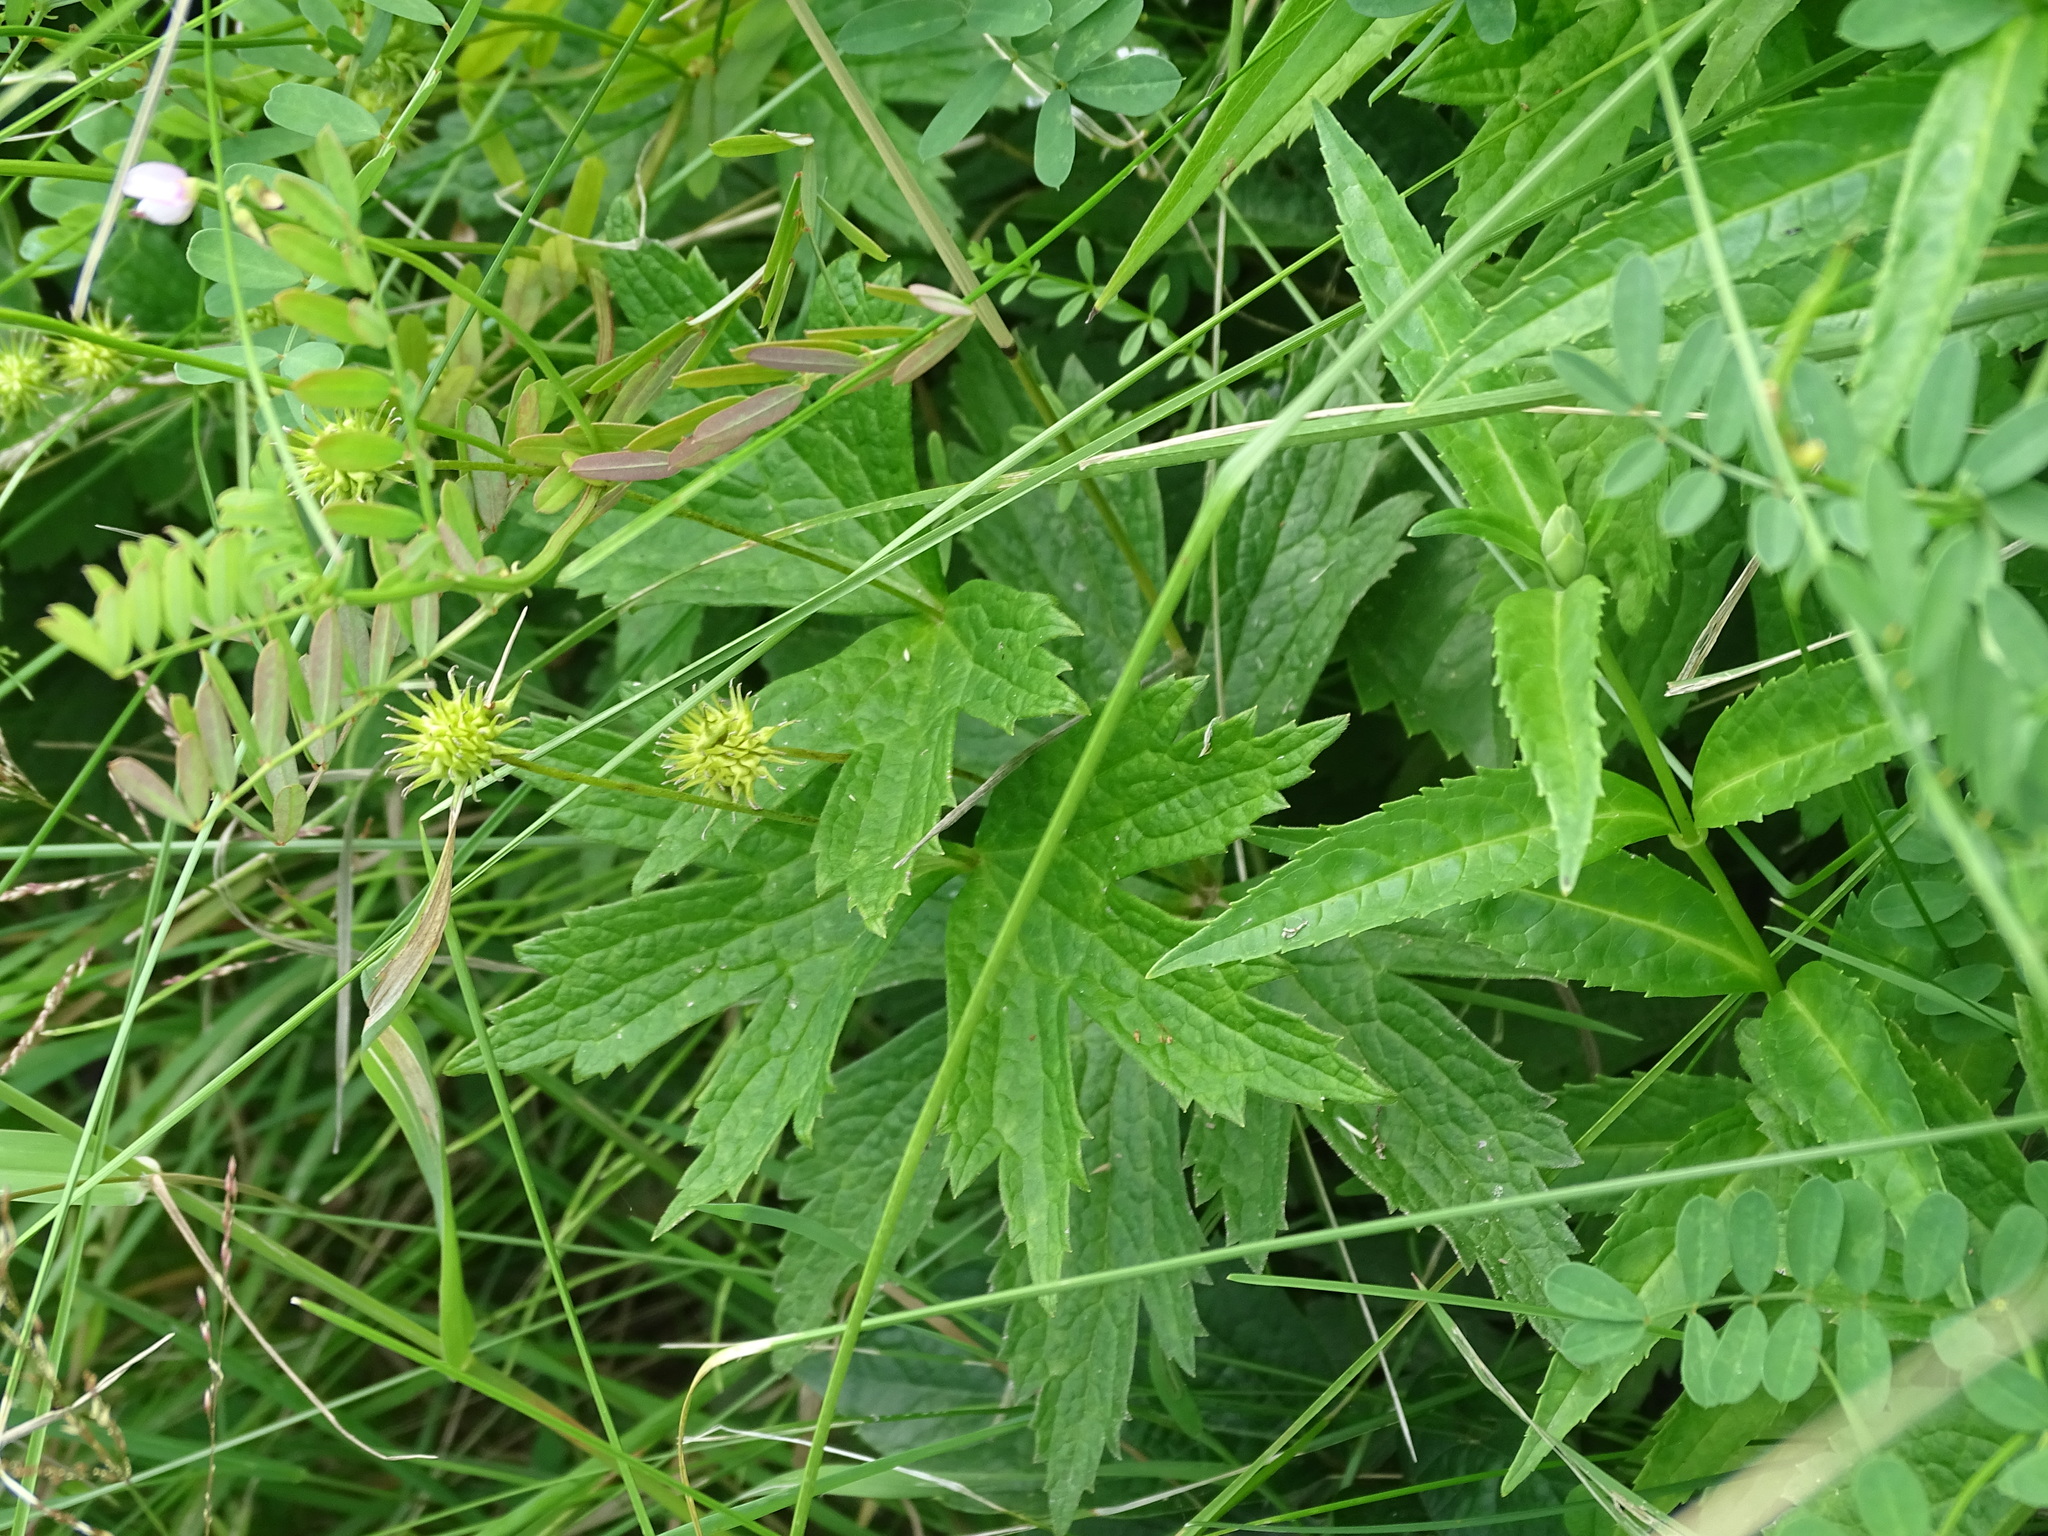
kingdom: Plantae
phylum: Tracheophyta
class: Magnoliopsida
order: Ranunculales
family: Ranunculaceae
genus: Anemonastrum
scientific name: Anemonastrum canadense
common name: Canada anemone
